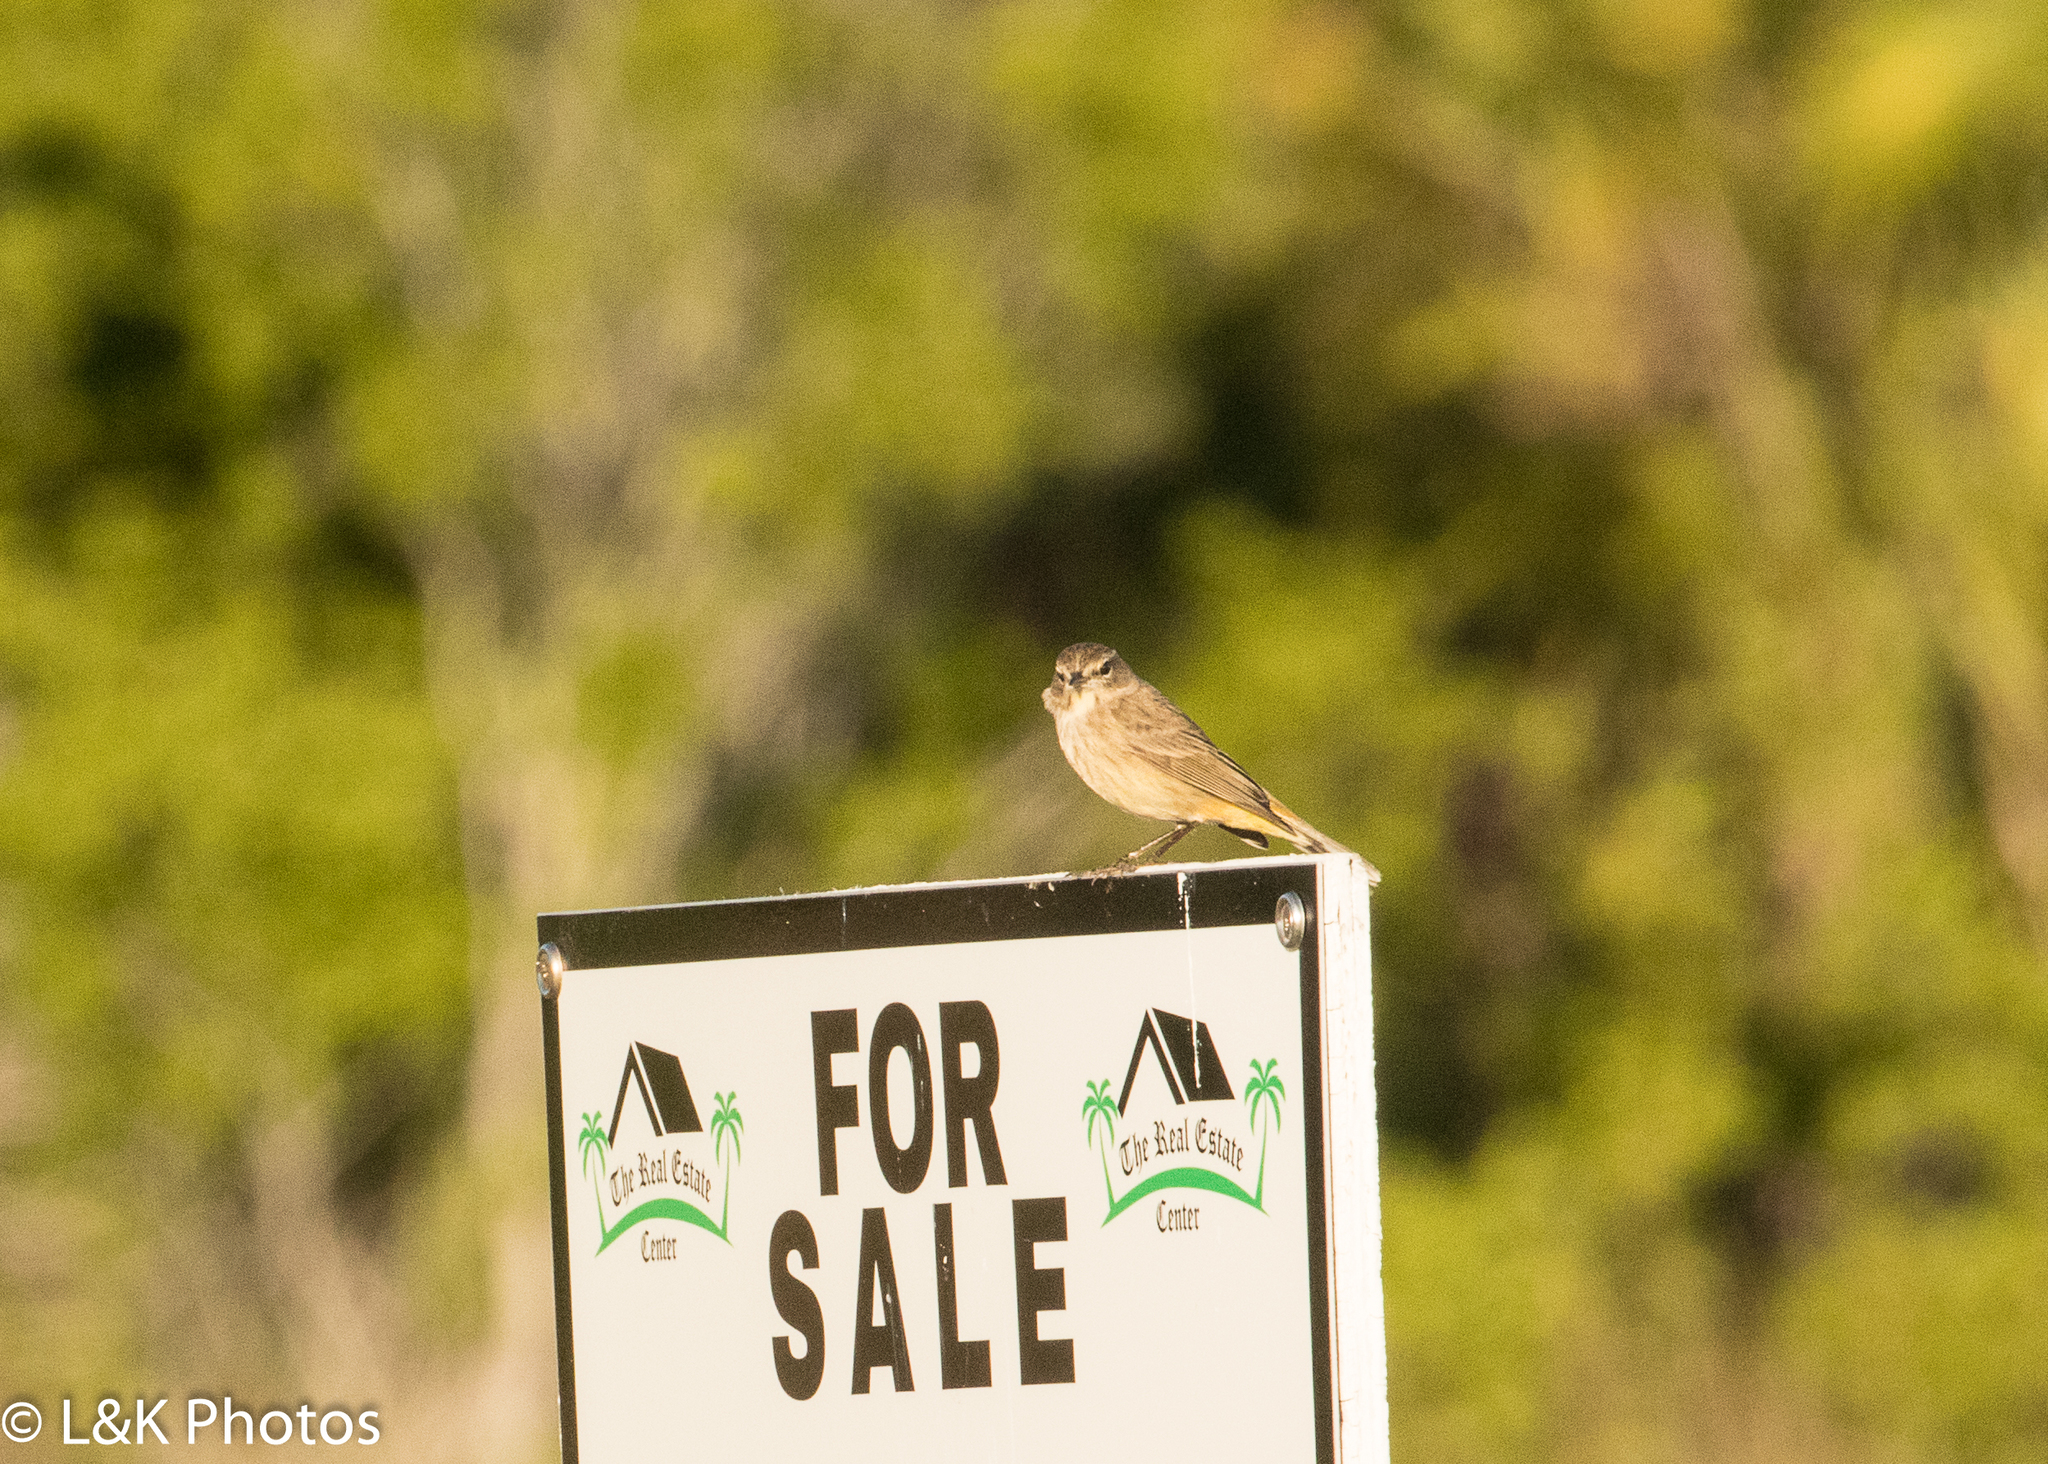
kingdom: Animalia
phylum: Chordata
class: Aves
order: Passeriformes
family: Parulidae
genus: Setophaga
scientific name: Setophaga palmarum
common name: Palm warbler
